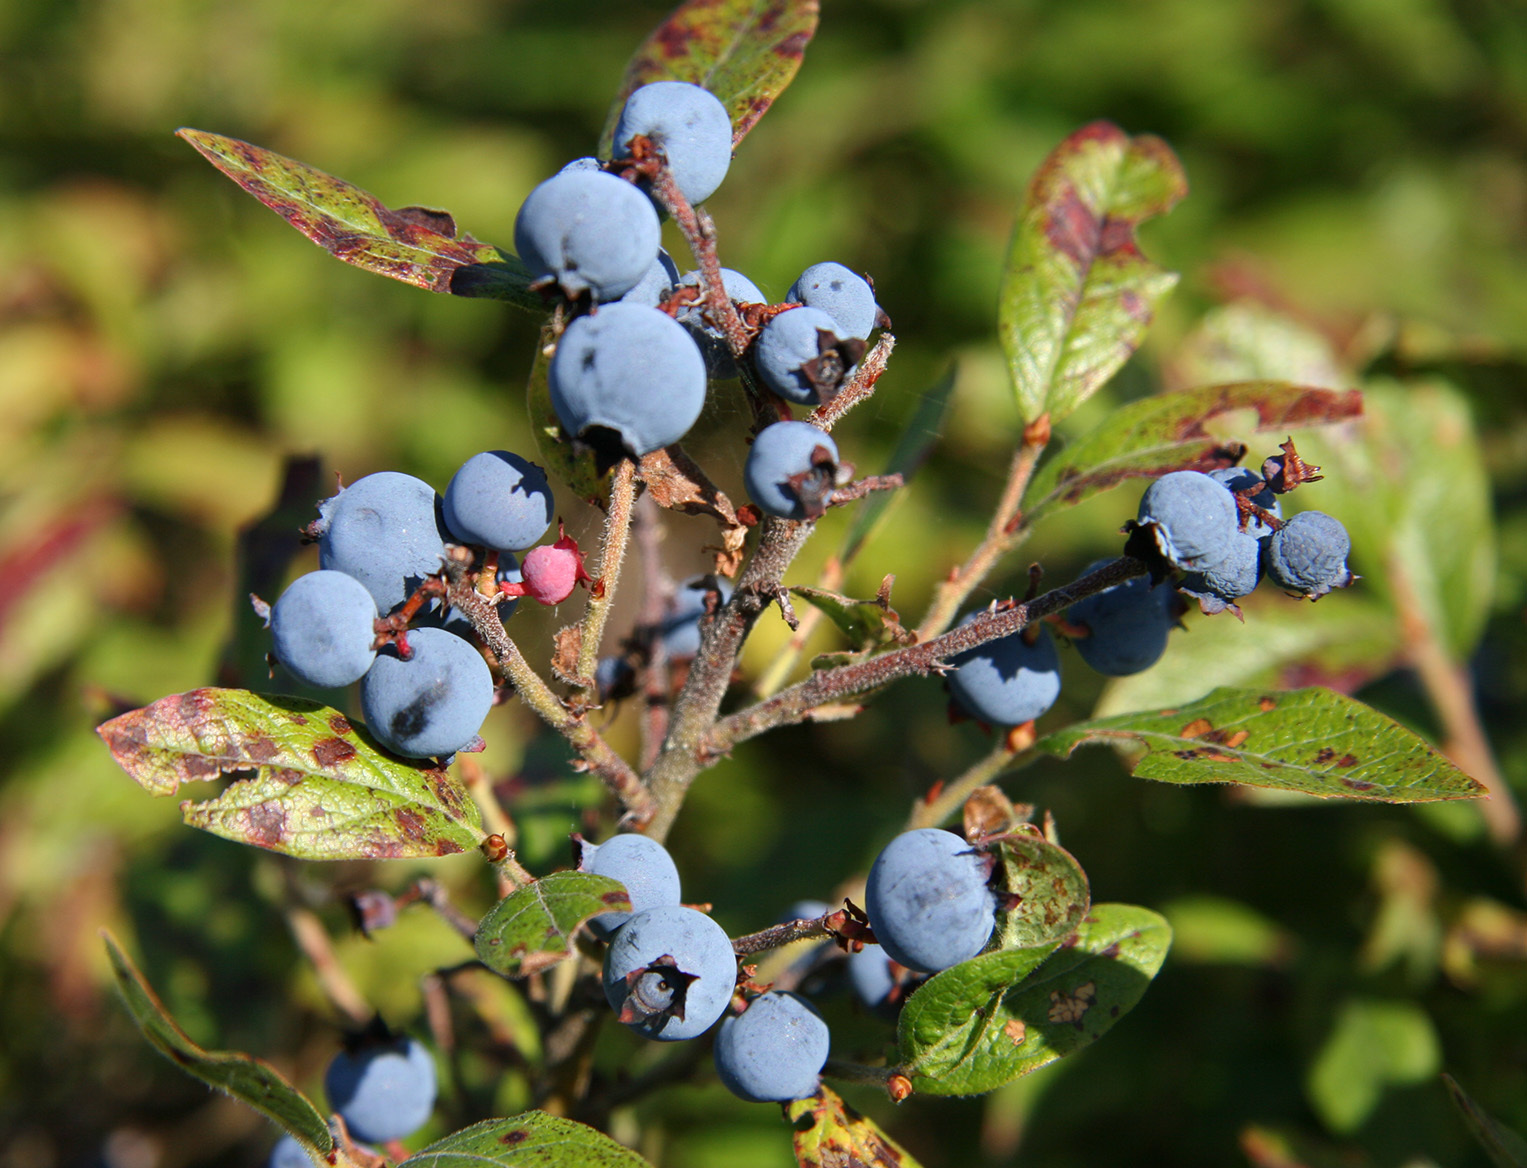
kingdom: Plantae
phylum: Tracheophyta
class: Magnoliopsida
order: Ericales
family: Ericaceae
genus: Vaccinium
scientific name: Vaccinium myrtilloides
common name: Canada blueberry
